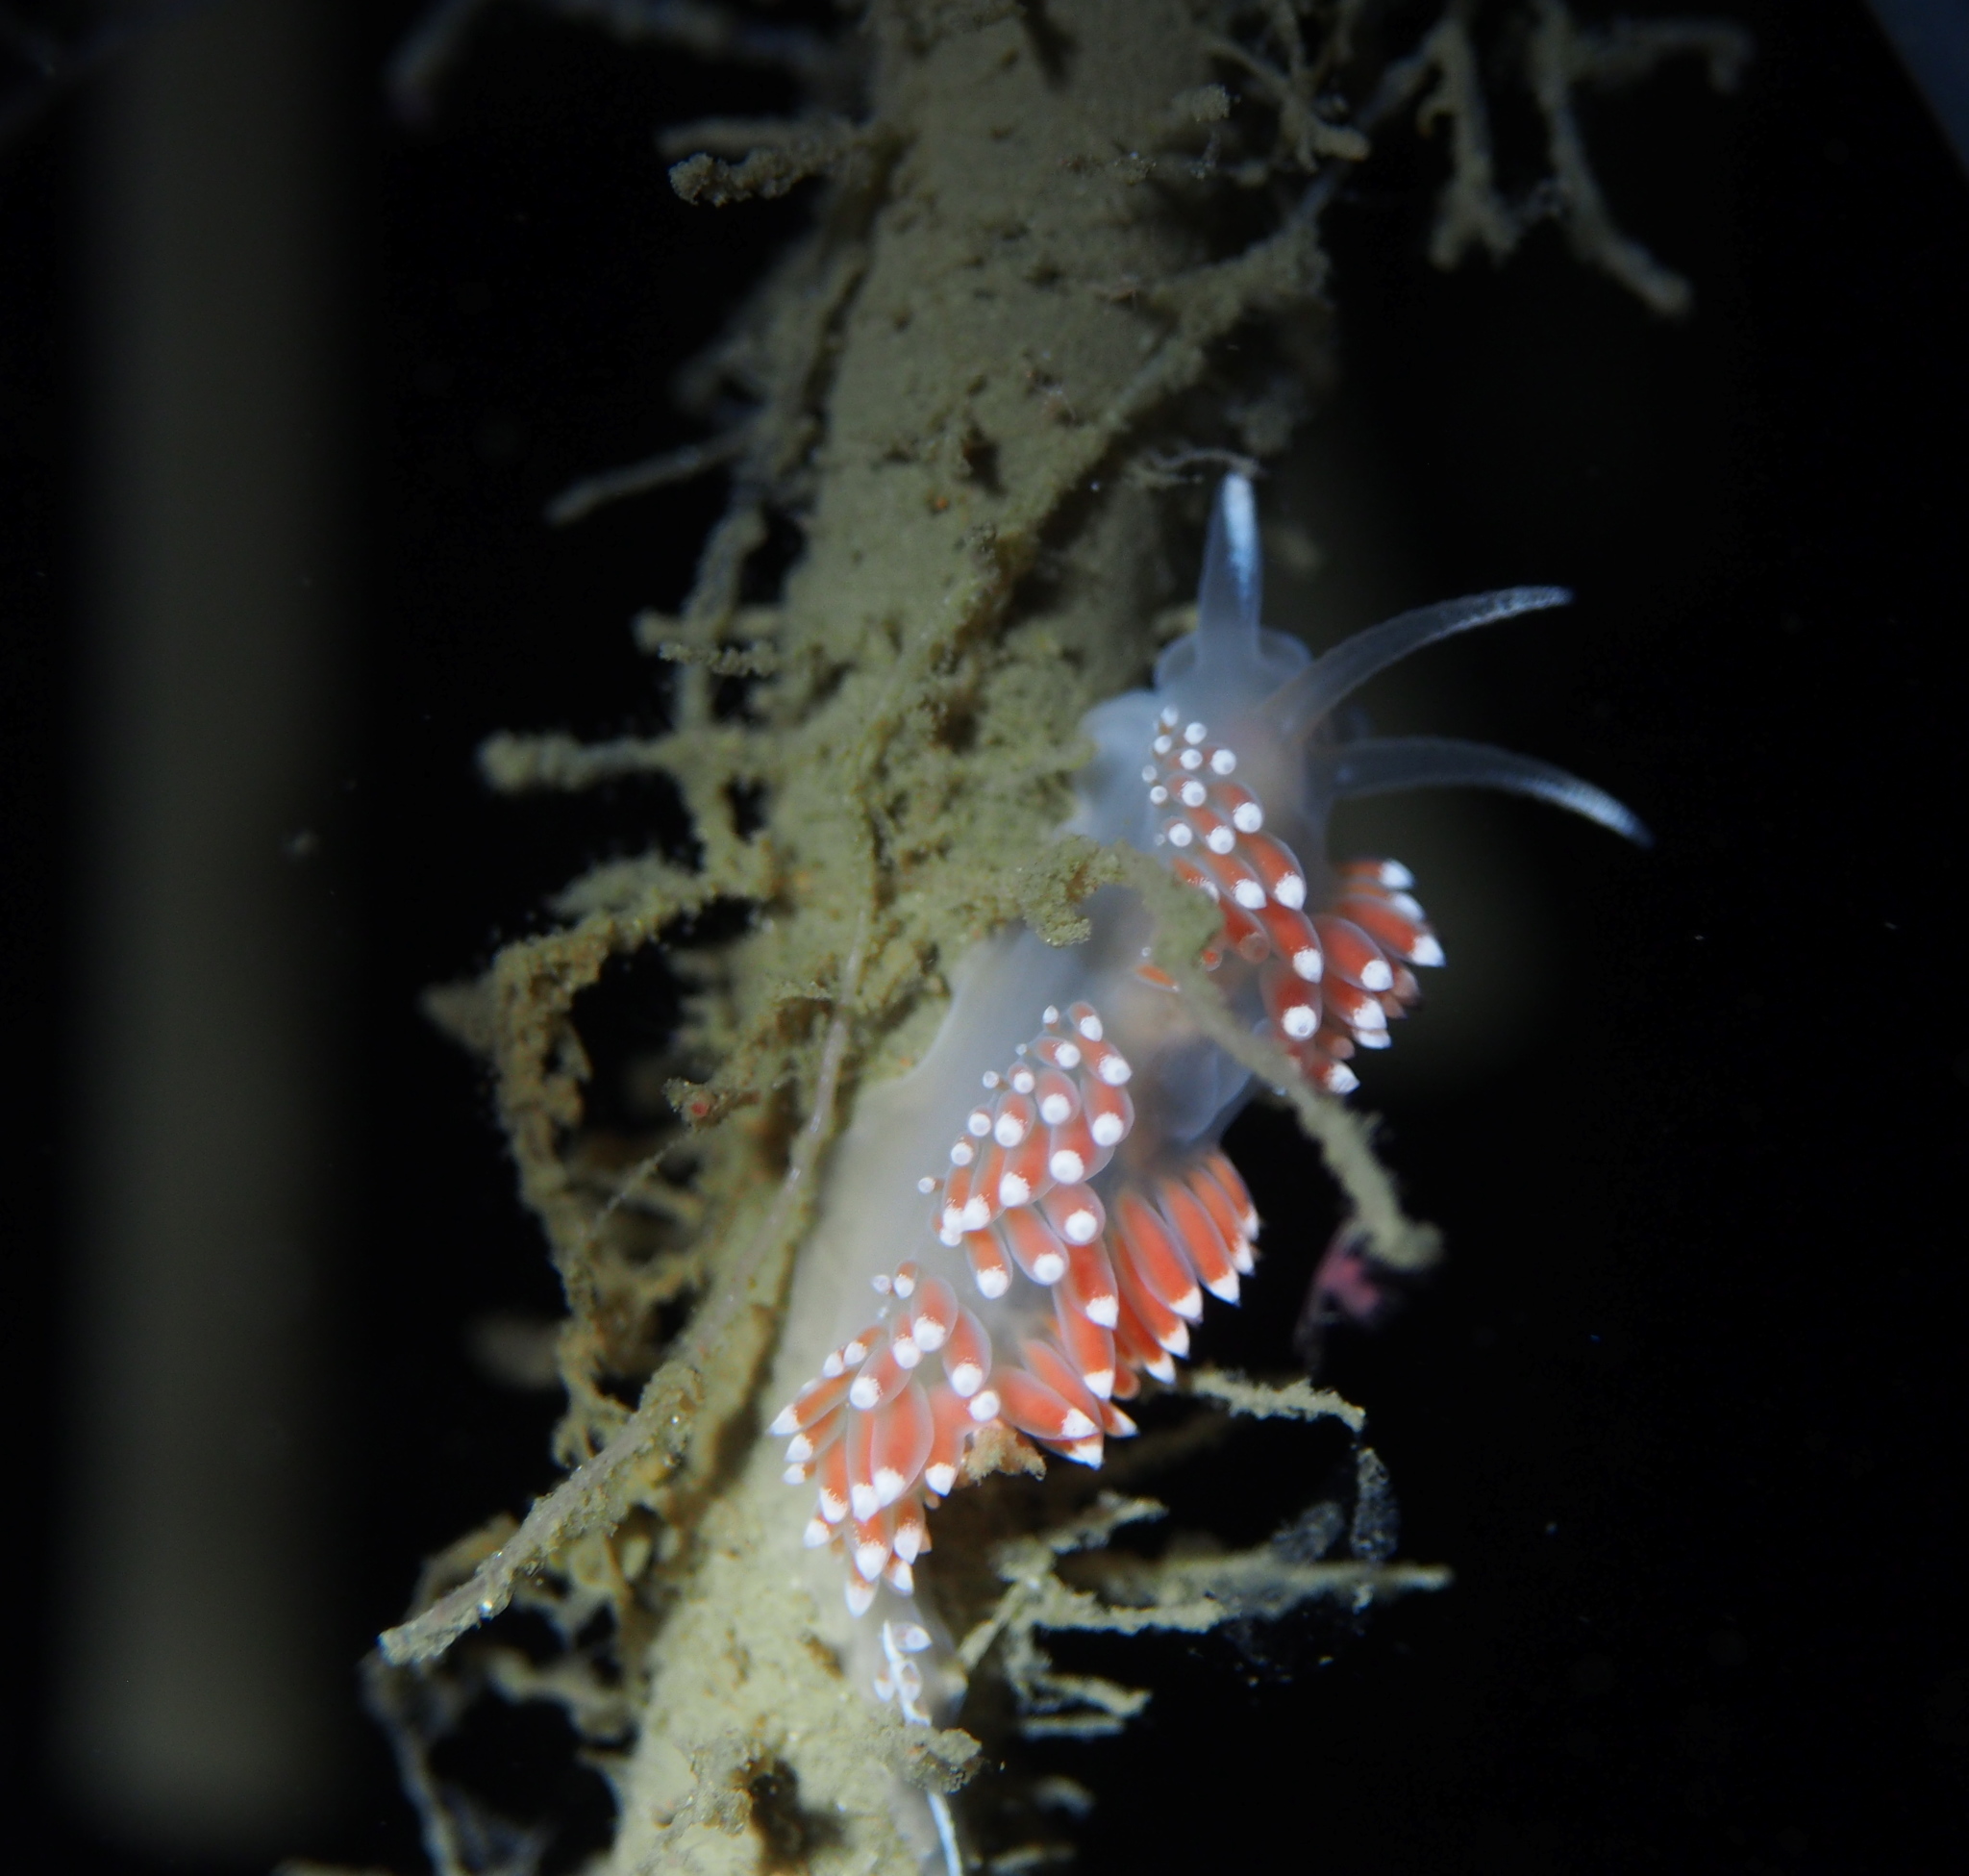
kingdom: Animalia
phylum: Mollusca
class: Gastropoda
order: Nudibranchia
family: Coryphellidae
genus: Coryphella
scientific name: Coryphella verrucosa
